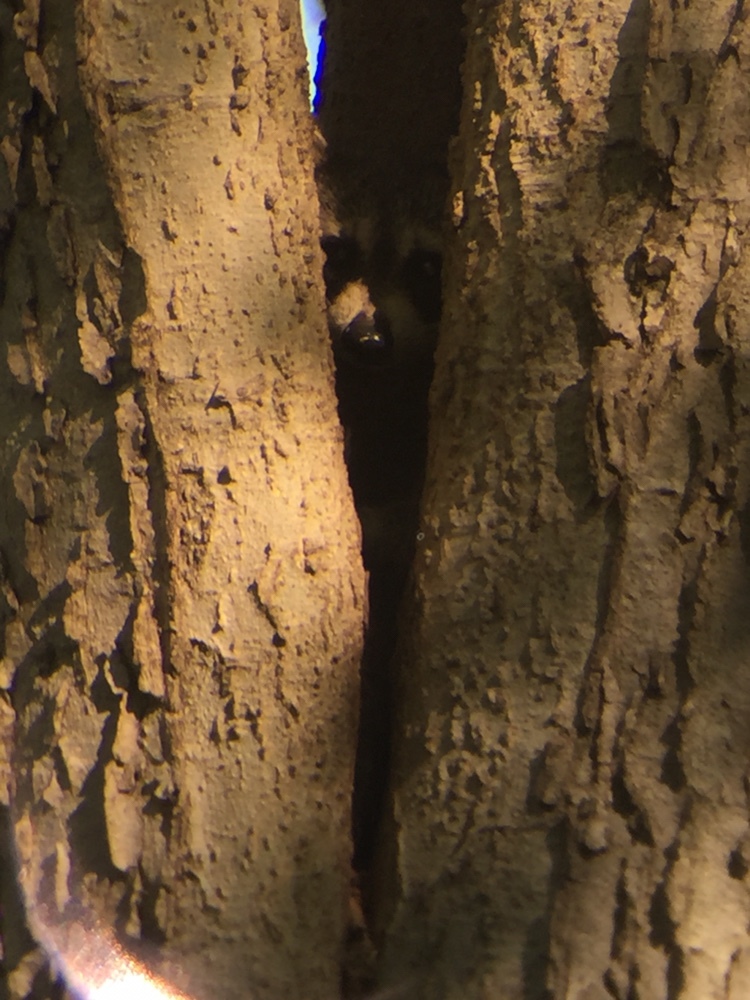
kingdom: Animalia
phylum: Chordata
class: Mammalia
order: Carnivora
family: Procyonidae
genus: Procyon
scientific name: Procyon lotor
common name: Raccoon
